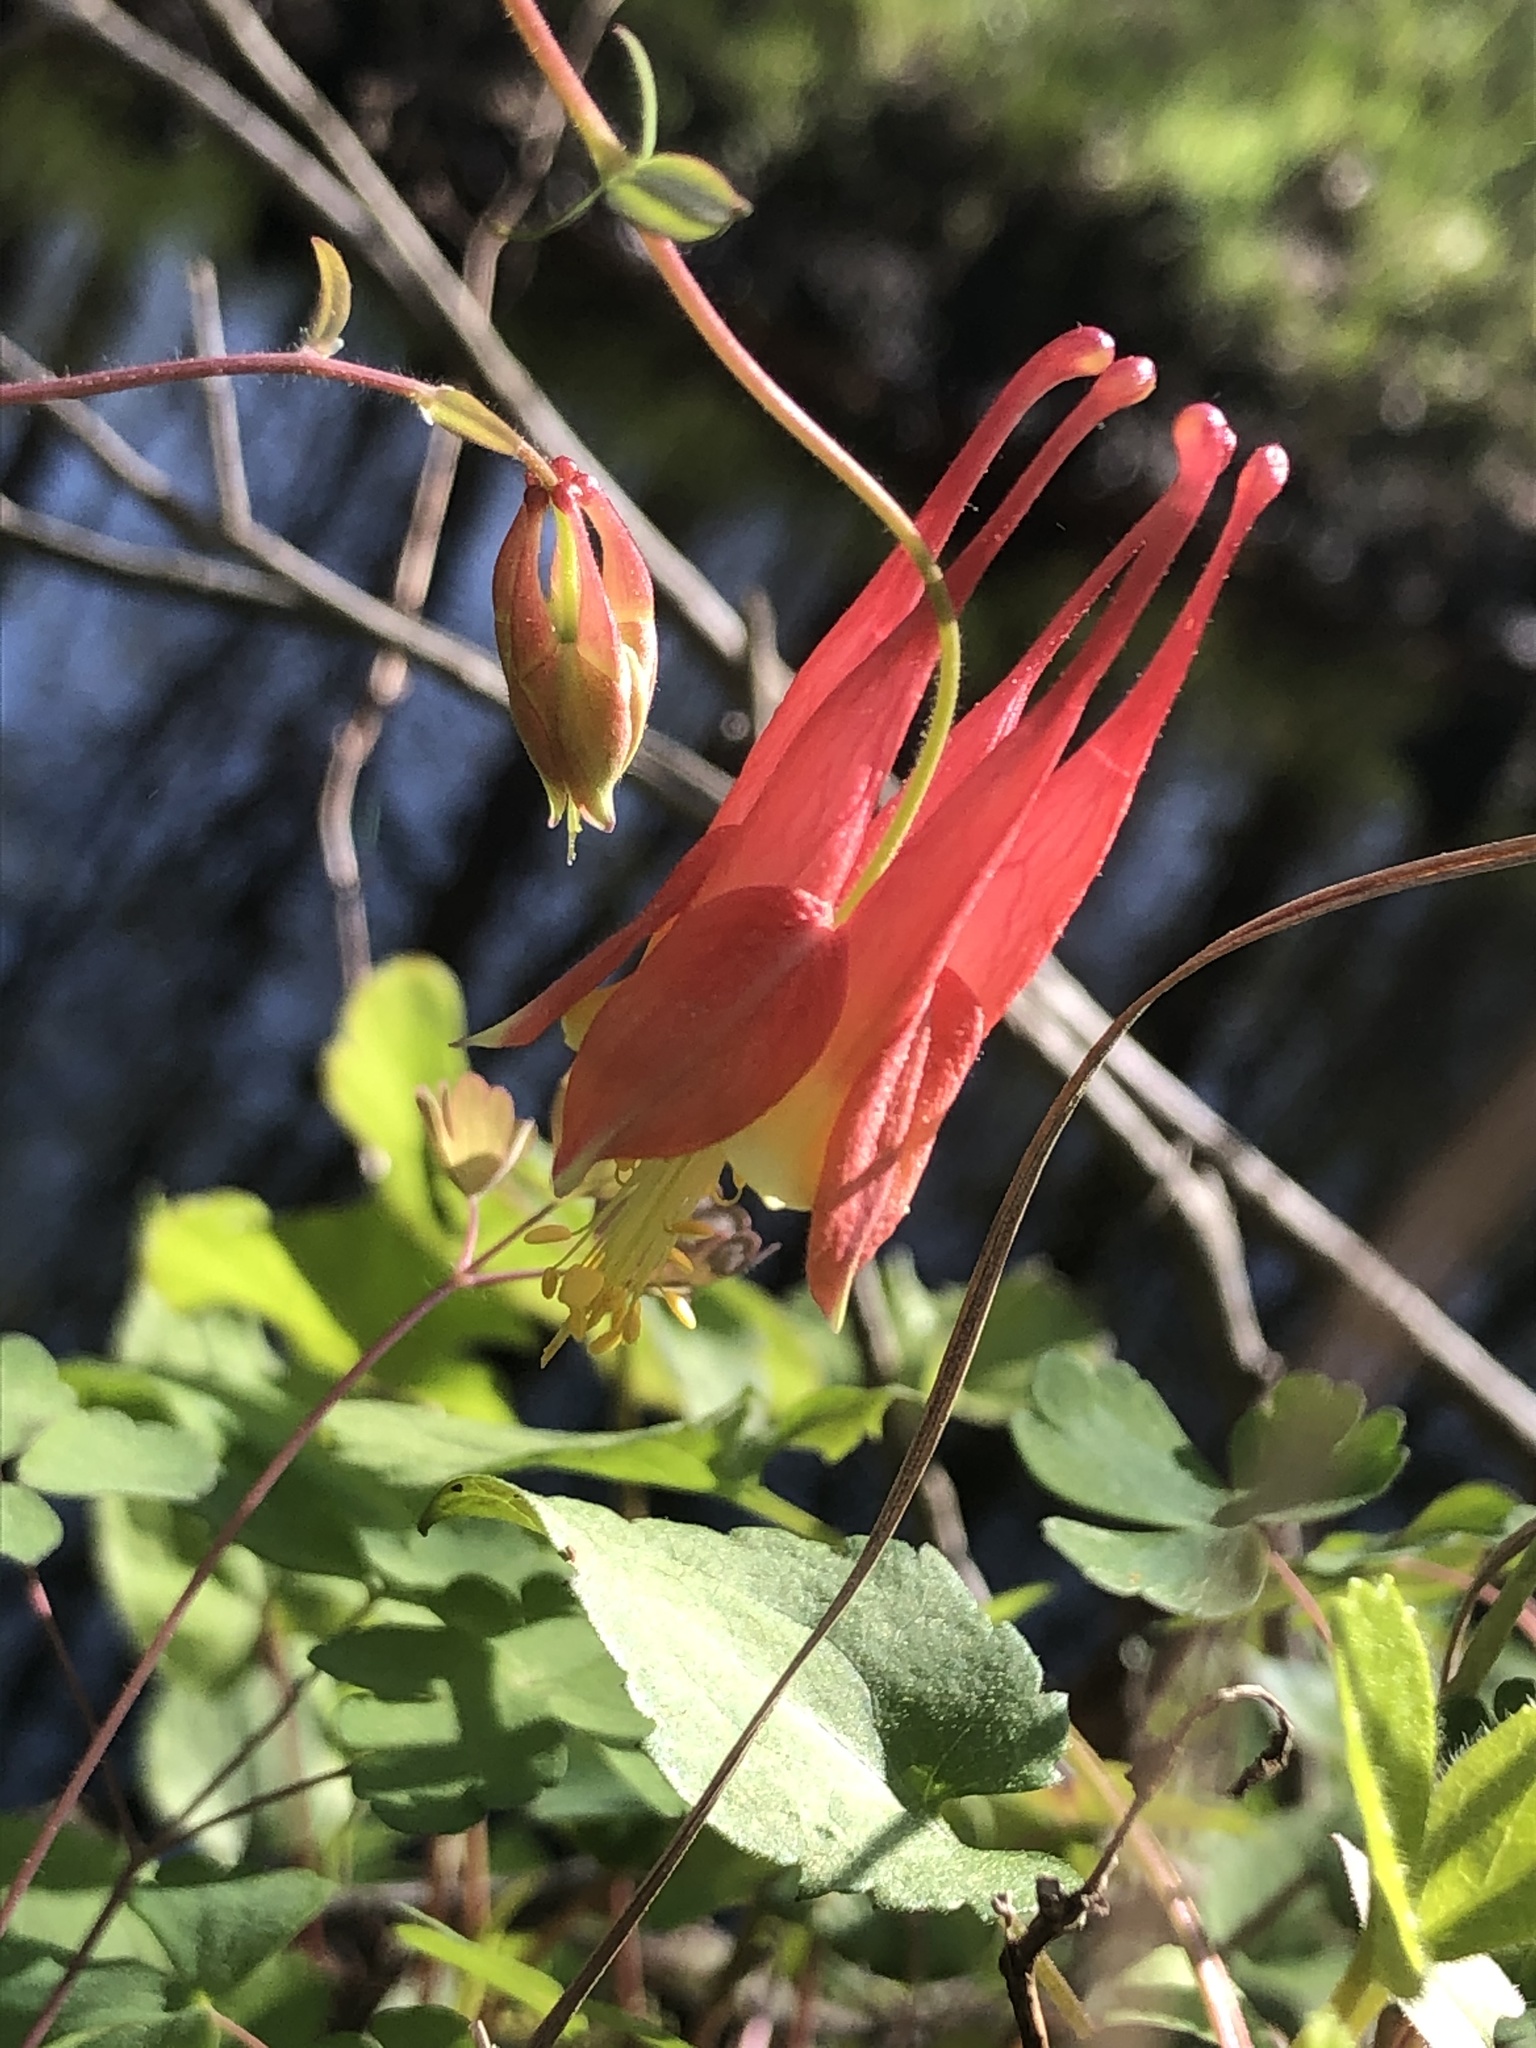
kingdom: Plantae
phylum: Tracheophyta
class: Magnoliopsida
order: Ranunculales
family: Ranunculaceae
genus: Aquilegia
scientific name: Aquilegia canadensis
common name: American columbine
